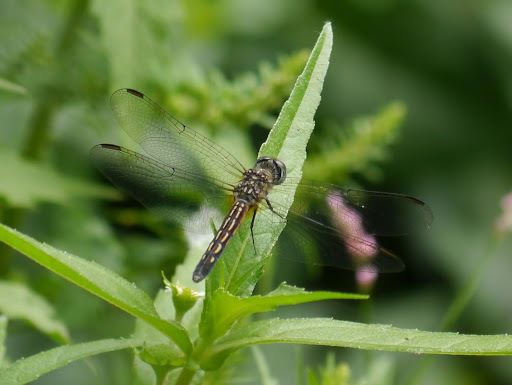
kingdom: Animalia
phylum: Arthropoda
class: Insecta
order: Odonata
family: Libellulidae
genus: Pachydiplax
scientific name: Pachydiplax longipennis
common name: Blue dasher
